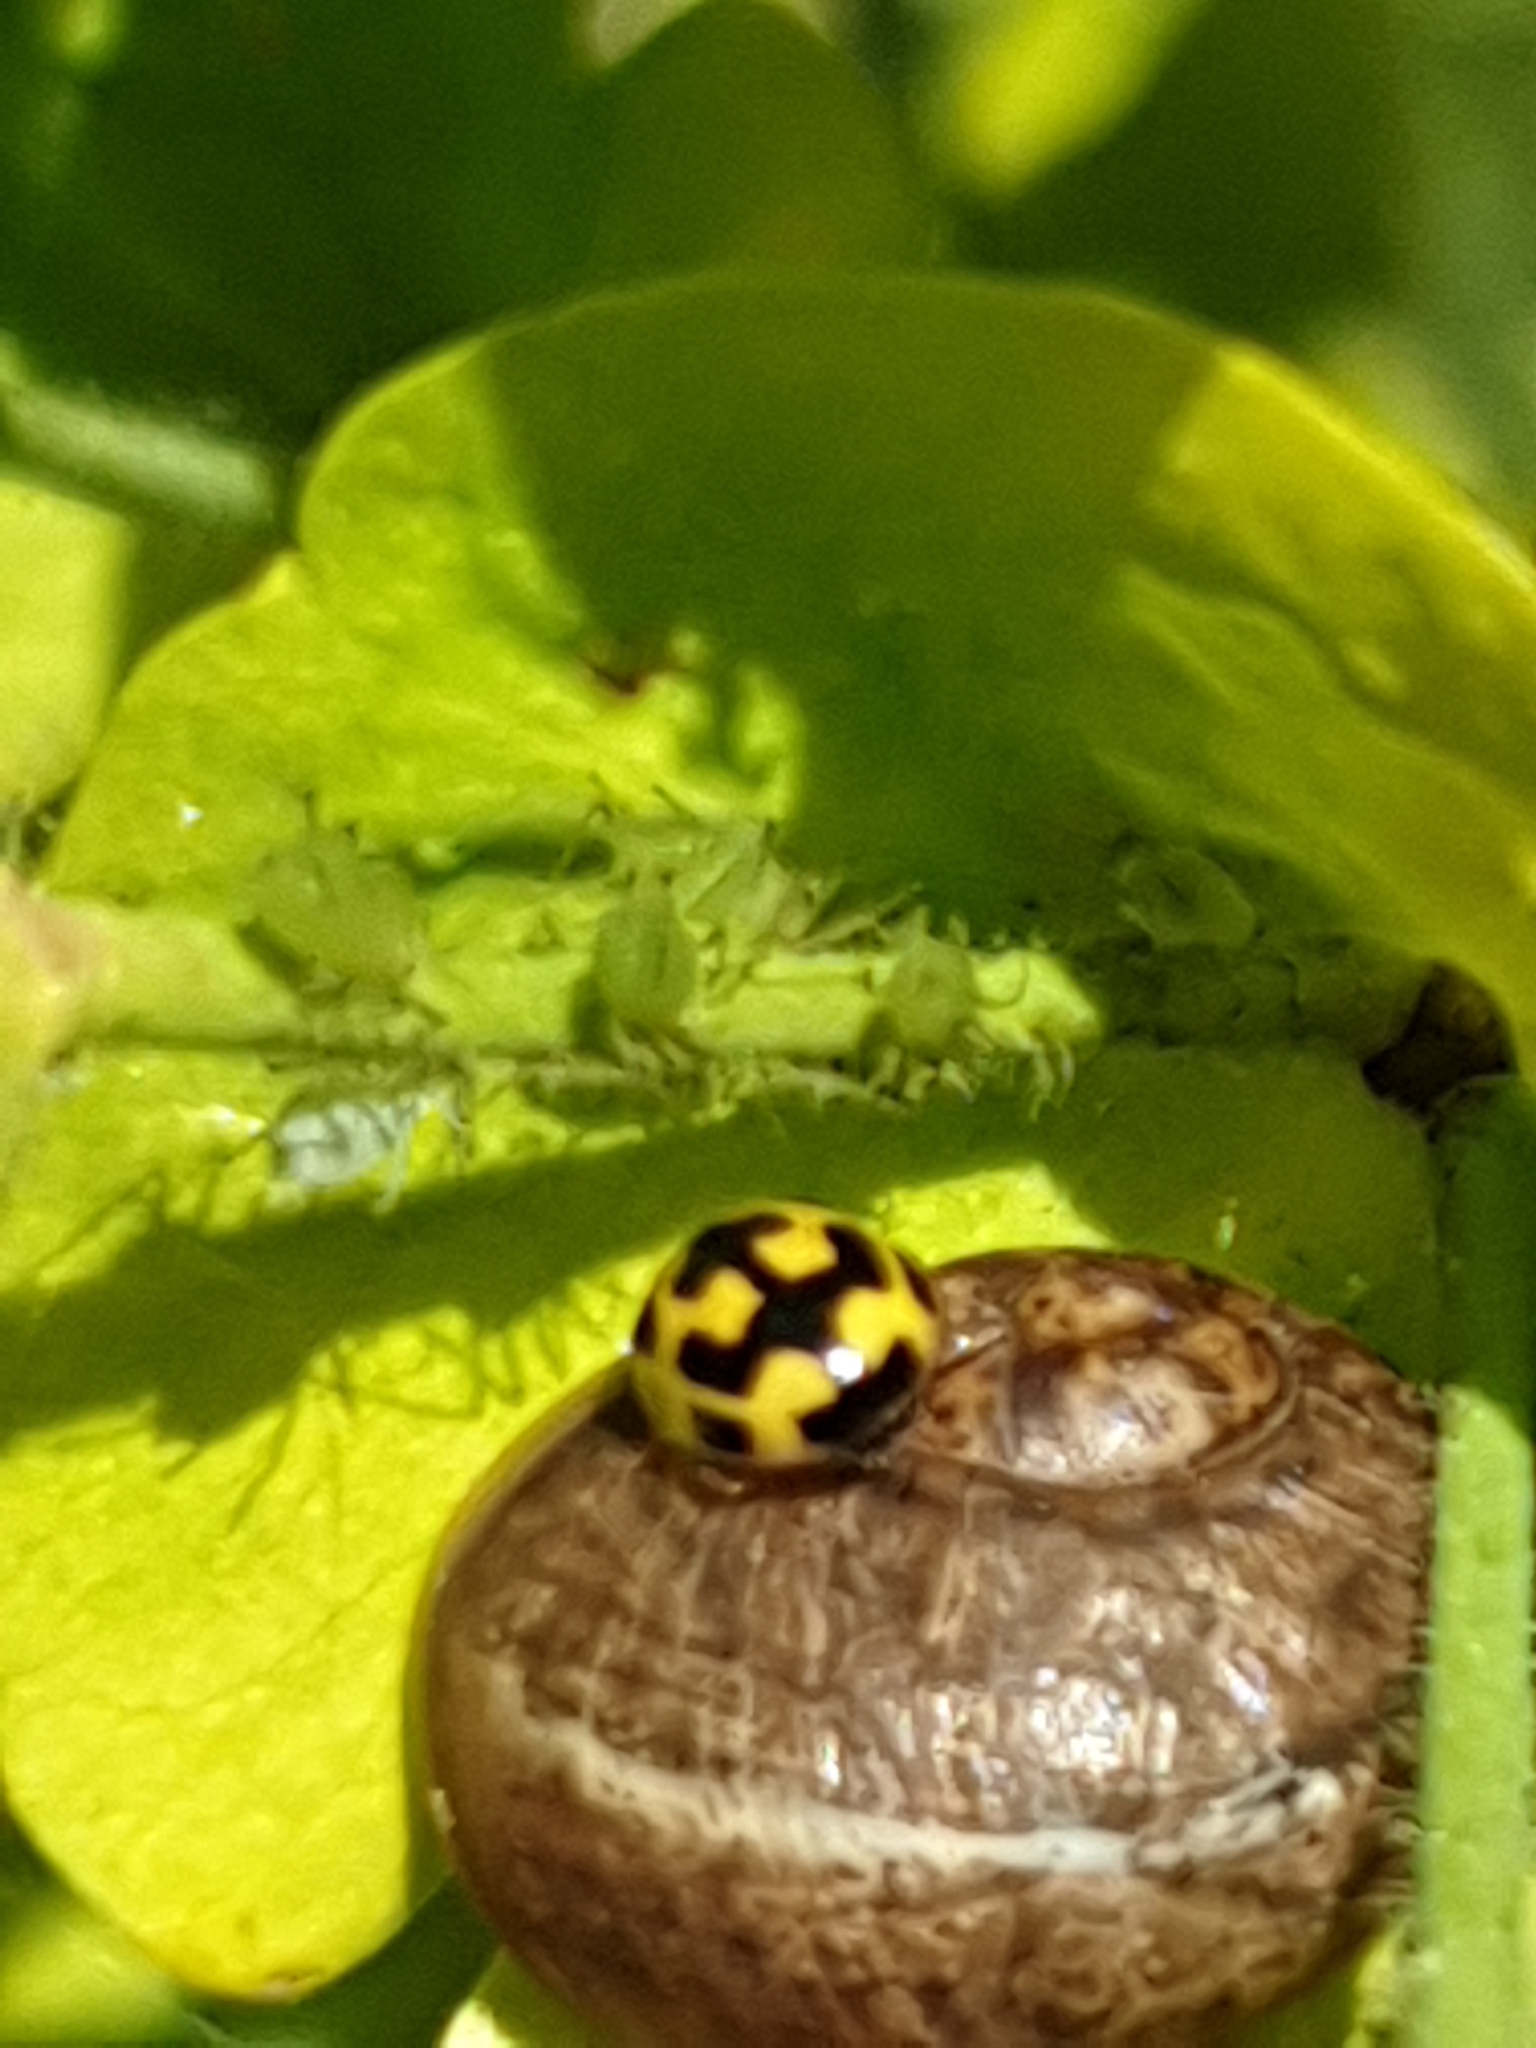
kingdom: Animalia
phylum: Arthropoda
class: Insecta
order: Coleoptera
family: Coccinellidae
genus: Propylaea
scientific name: Propylaea quatuordecimpunctata
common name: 14-spotted ladybird beetle
